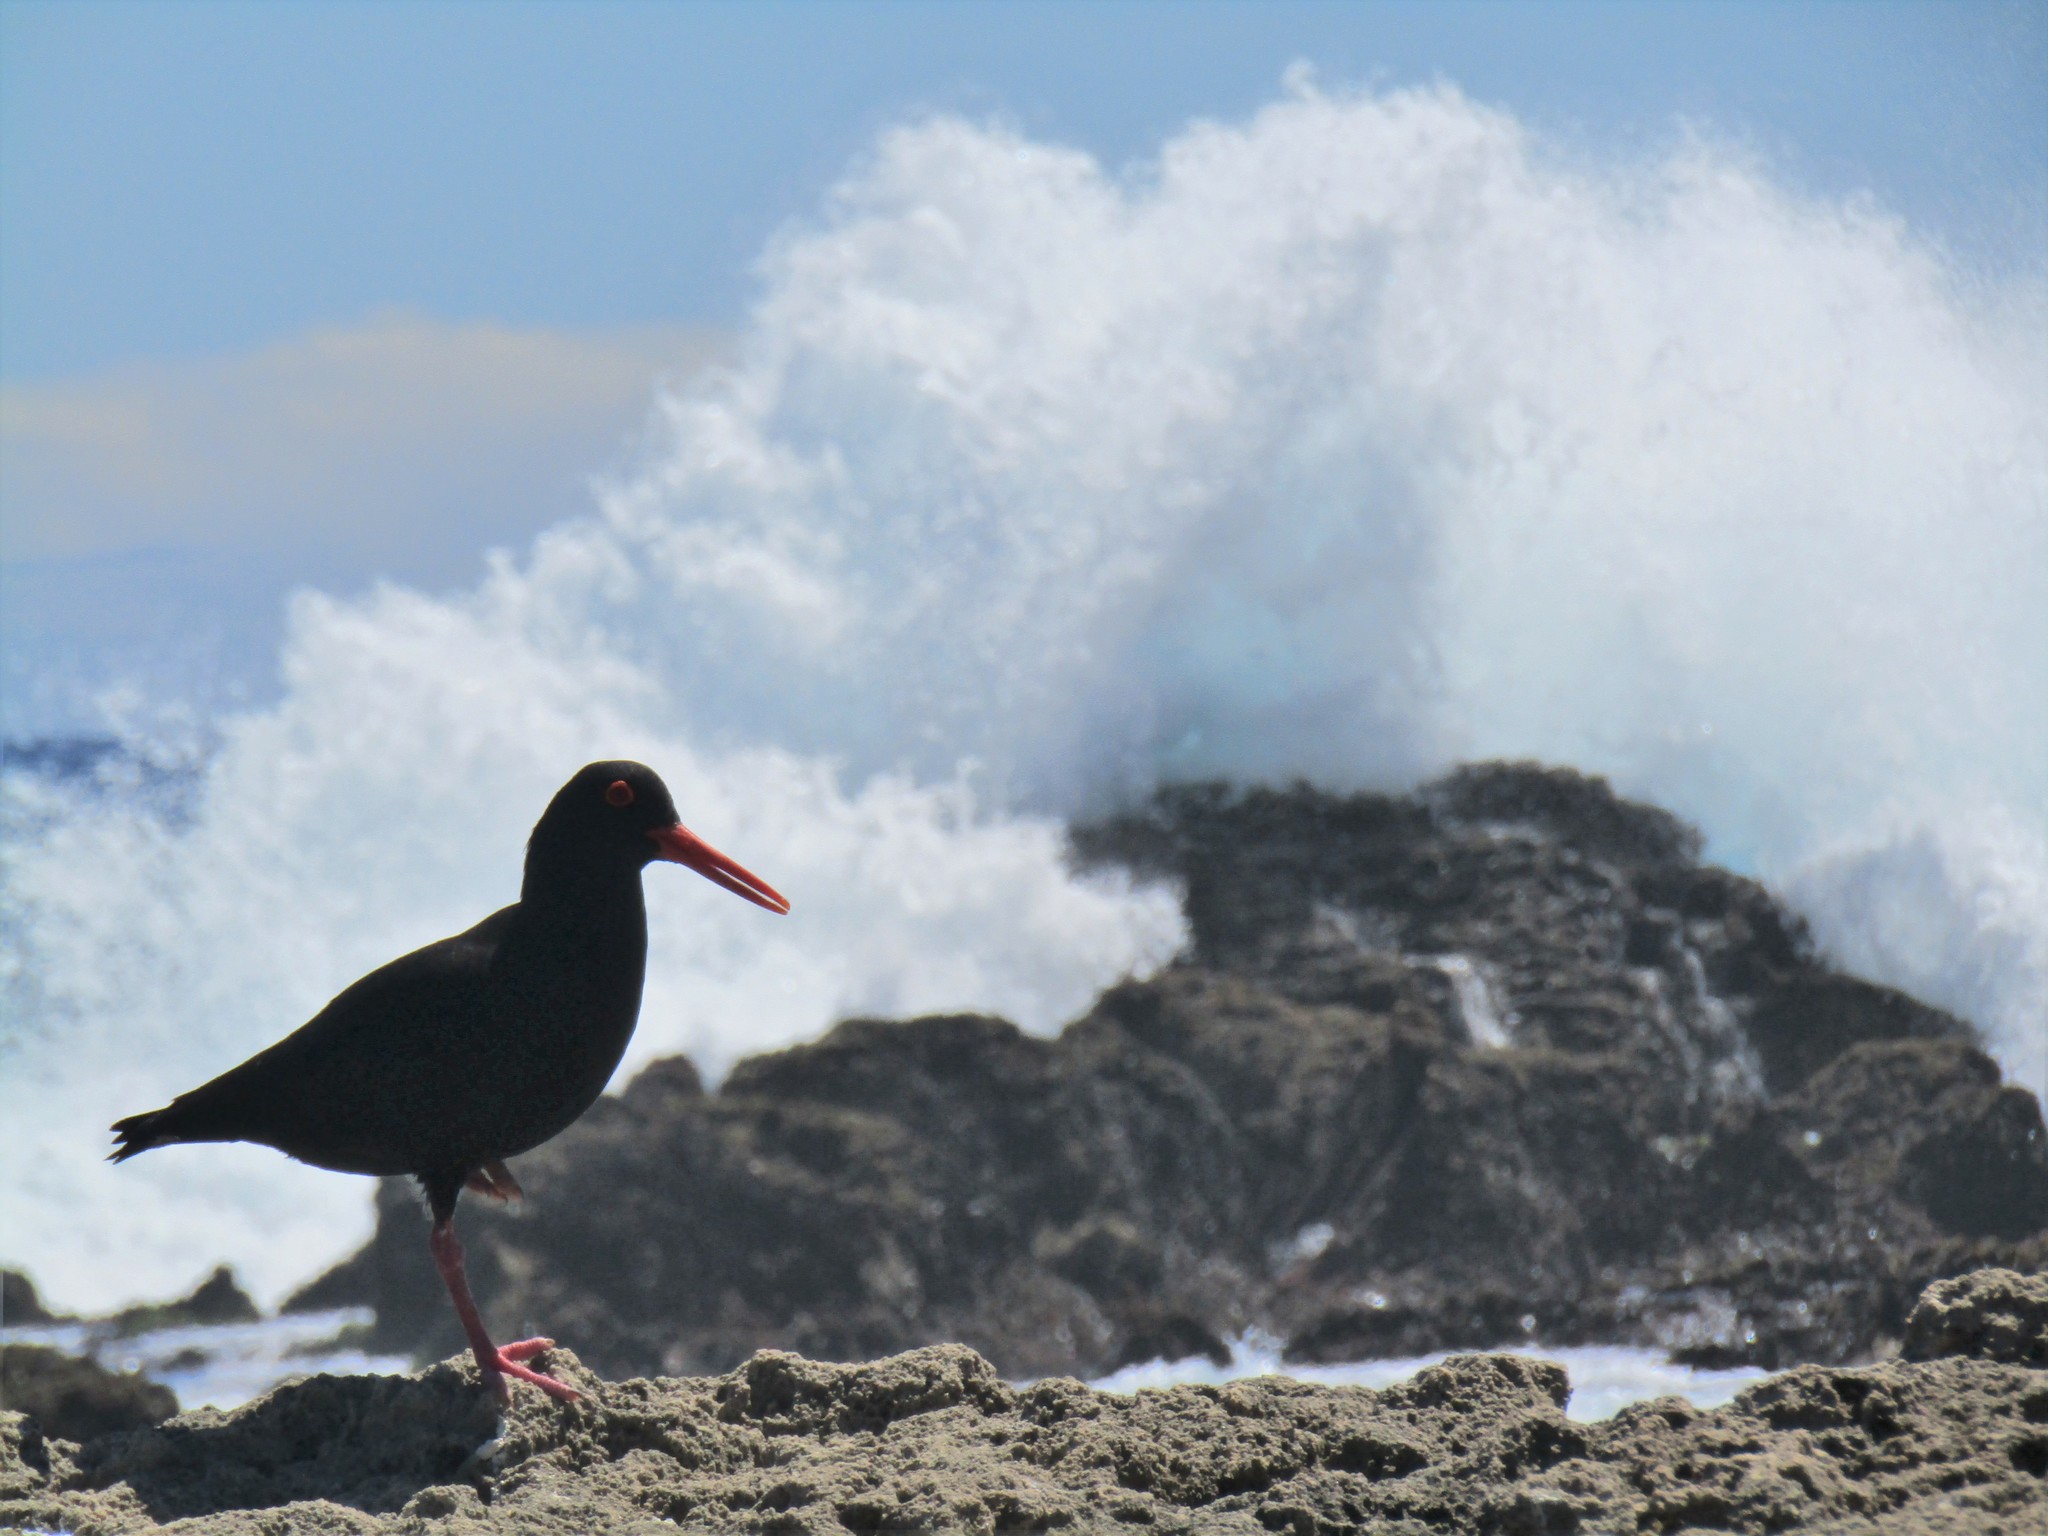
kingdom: Animalia
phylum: Chordata
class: Aves
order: Charadriiformes
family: Haematopodidae
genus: Haematopus
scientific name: Haematopus moquini
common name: African oystercatcher
